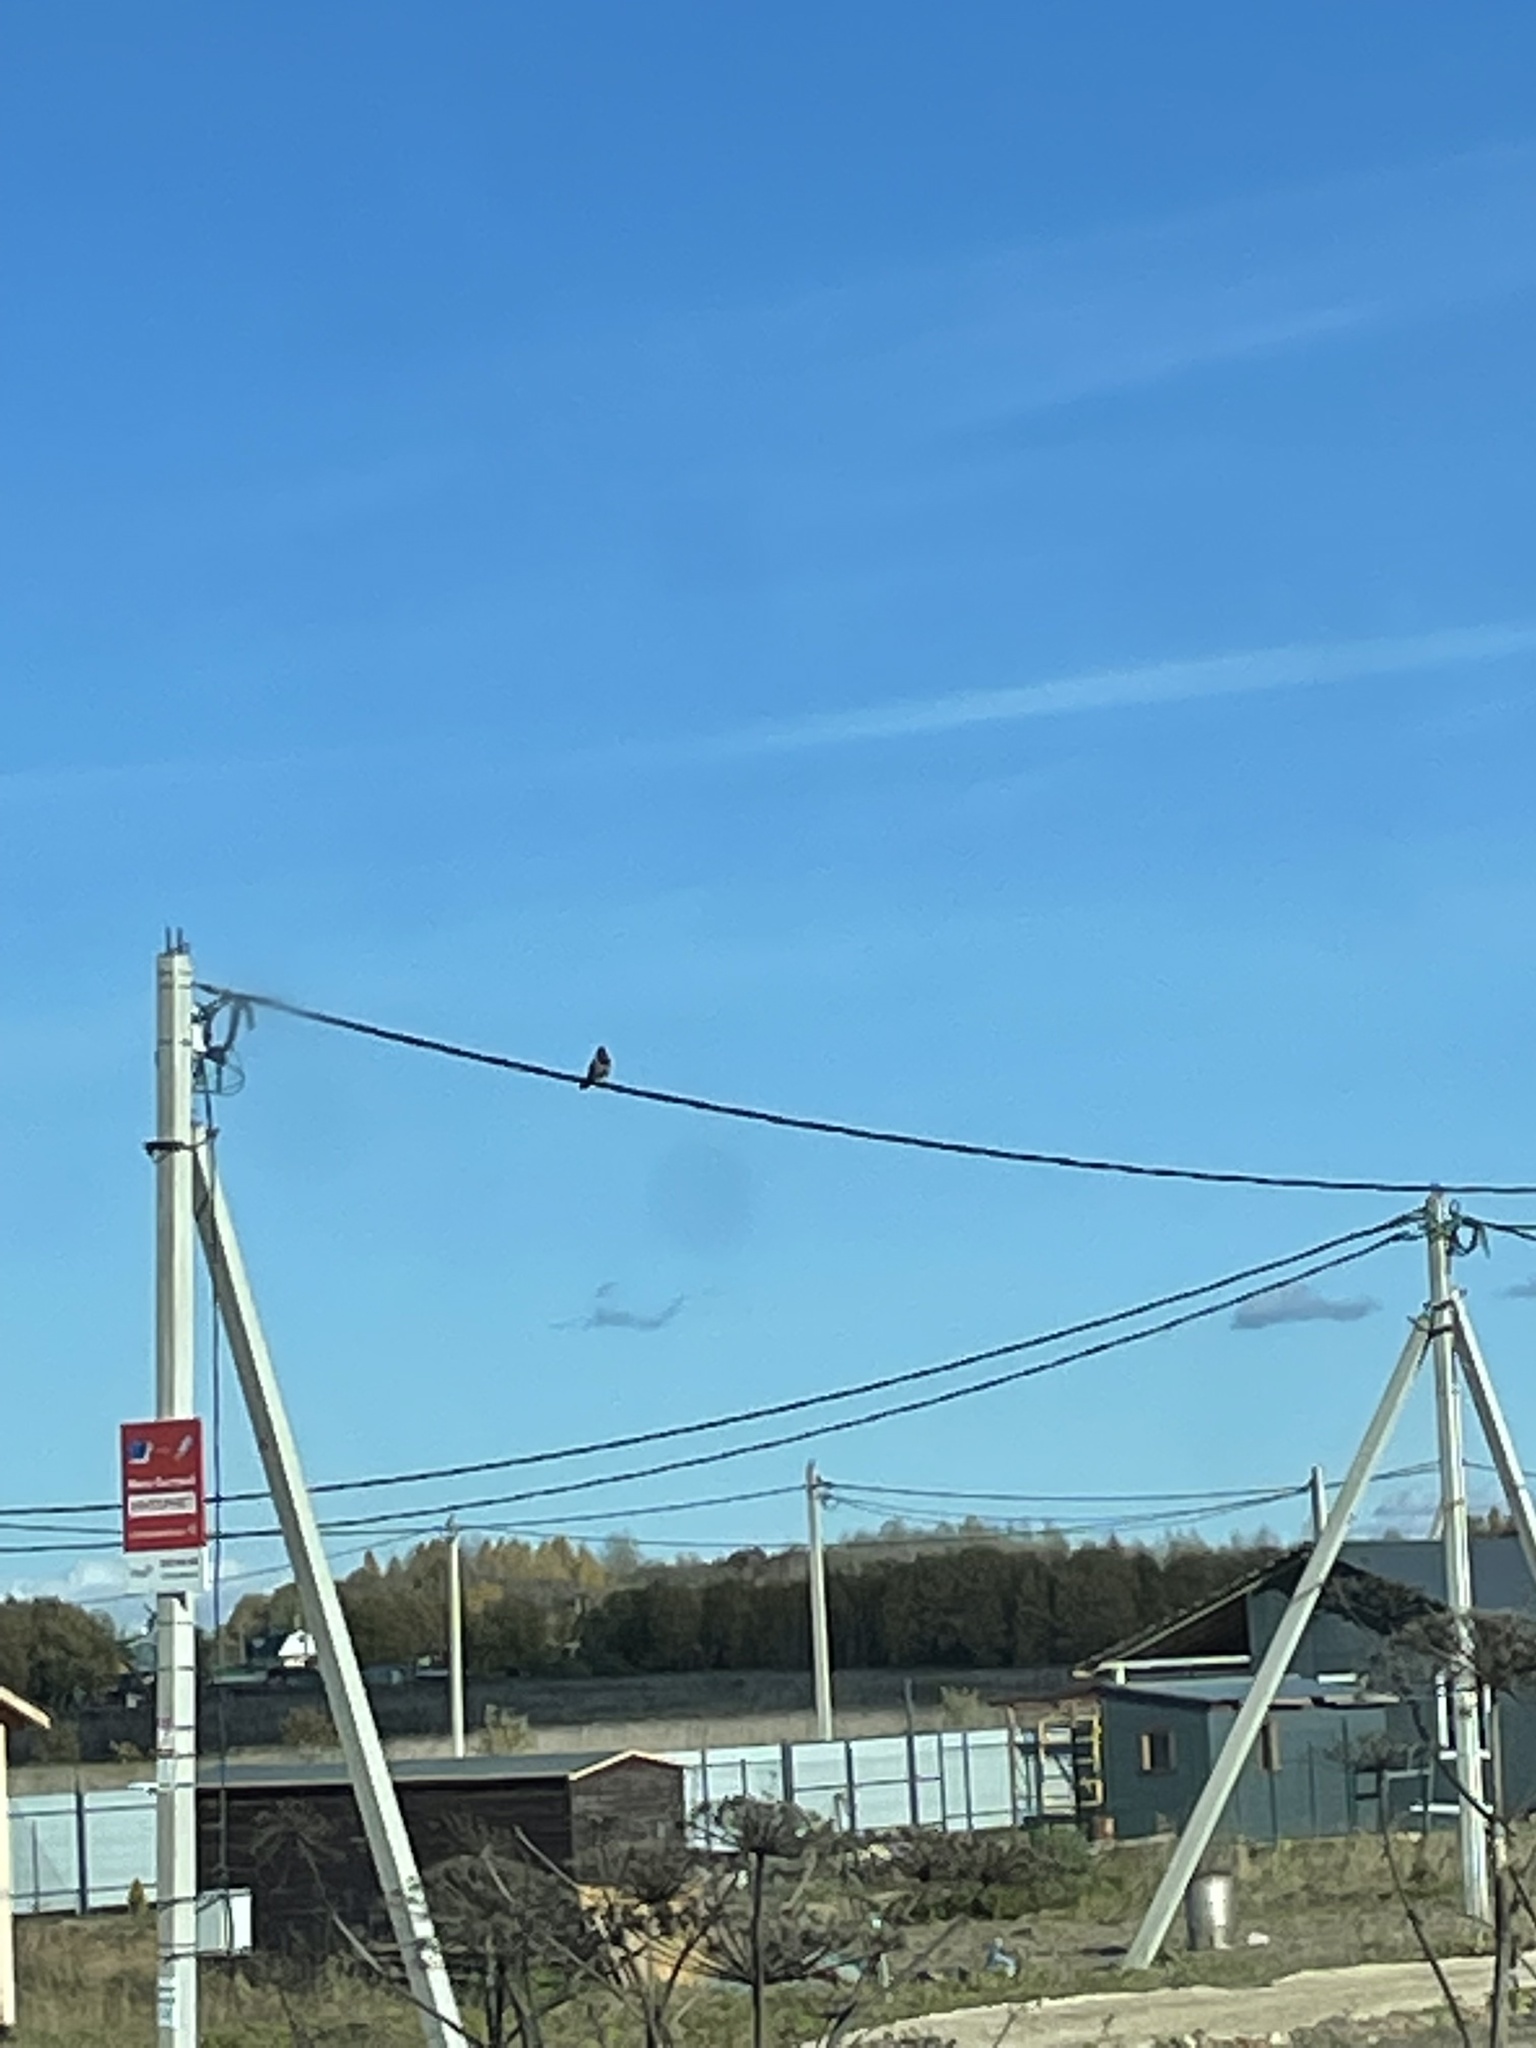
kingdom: Animalia
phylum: Chordata
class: Aves
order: Passeriformes
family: Corvidae
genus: Corvus
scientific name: Corvus cornix
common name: Hooded crow
